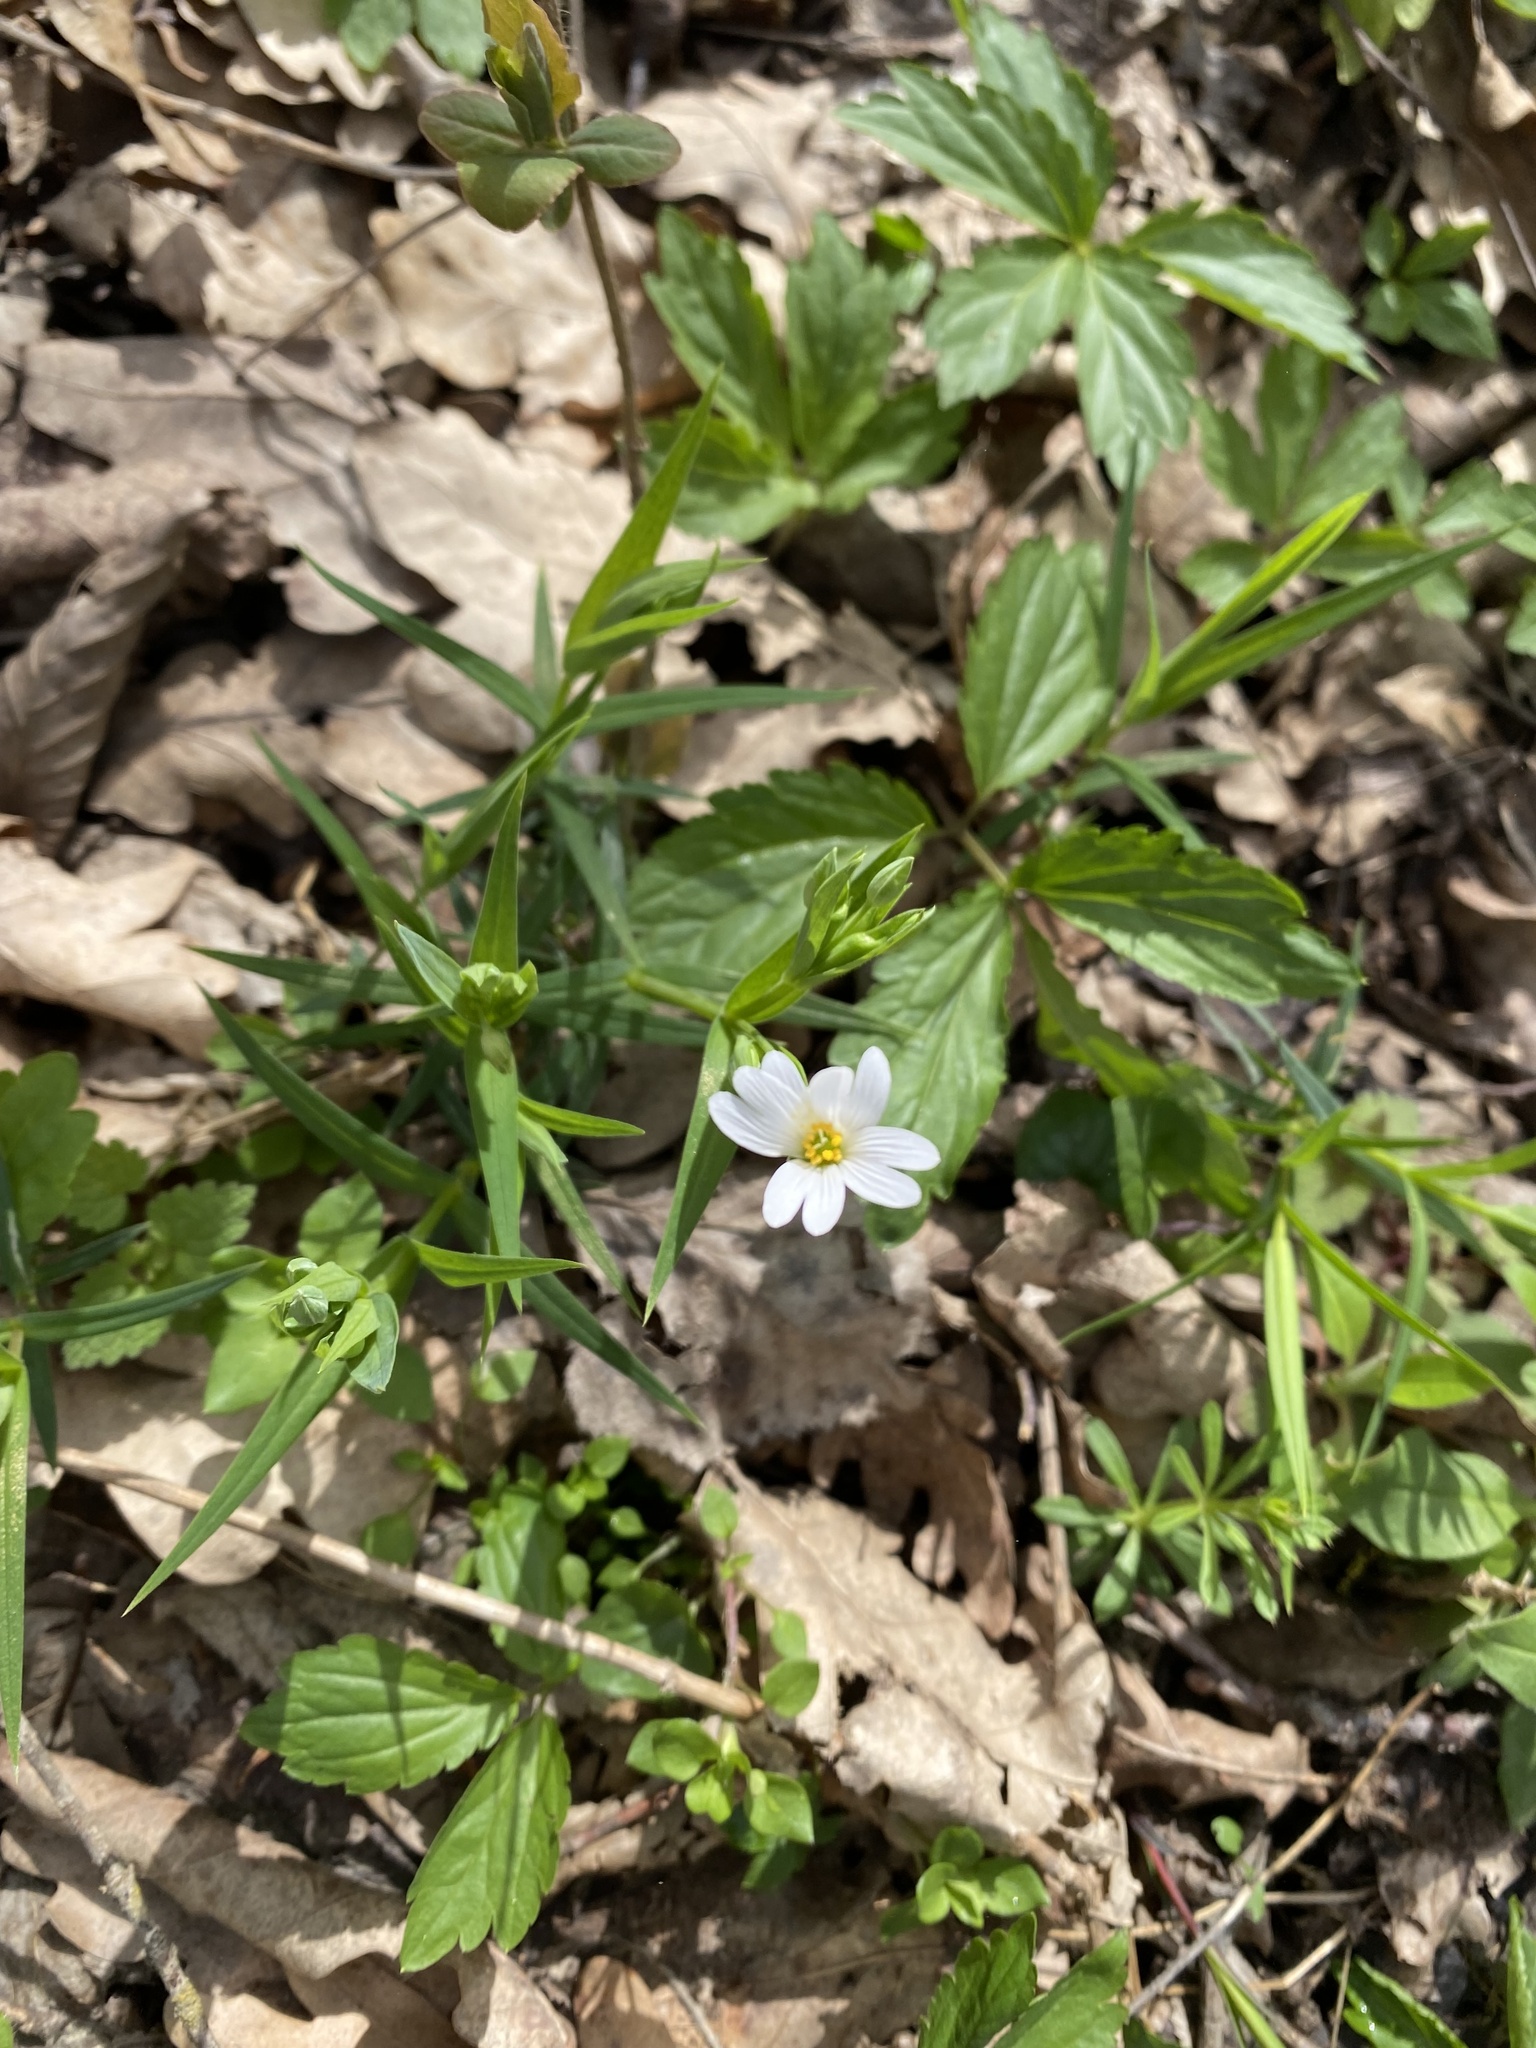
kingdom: Plantae
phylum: Tracheophyta
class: Magnoliopsida
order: Caryophyllales
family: Caryophyllaceae
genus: Rabelera
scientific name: Rabelera holostea
